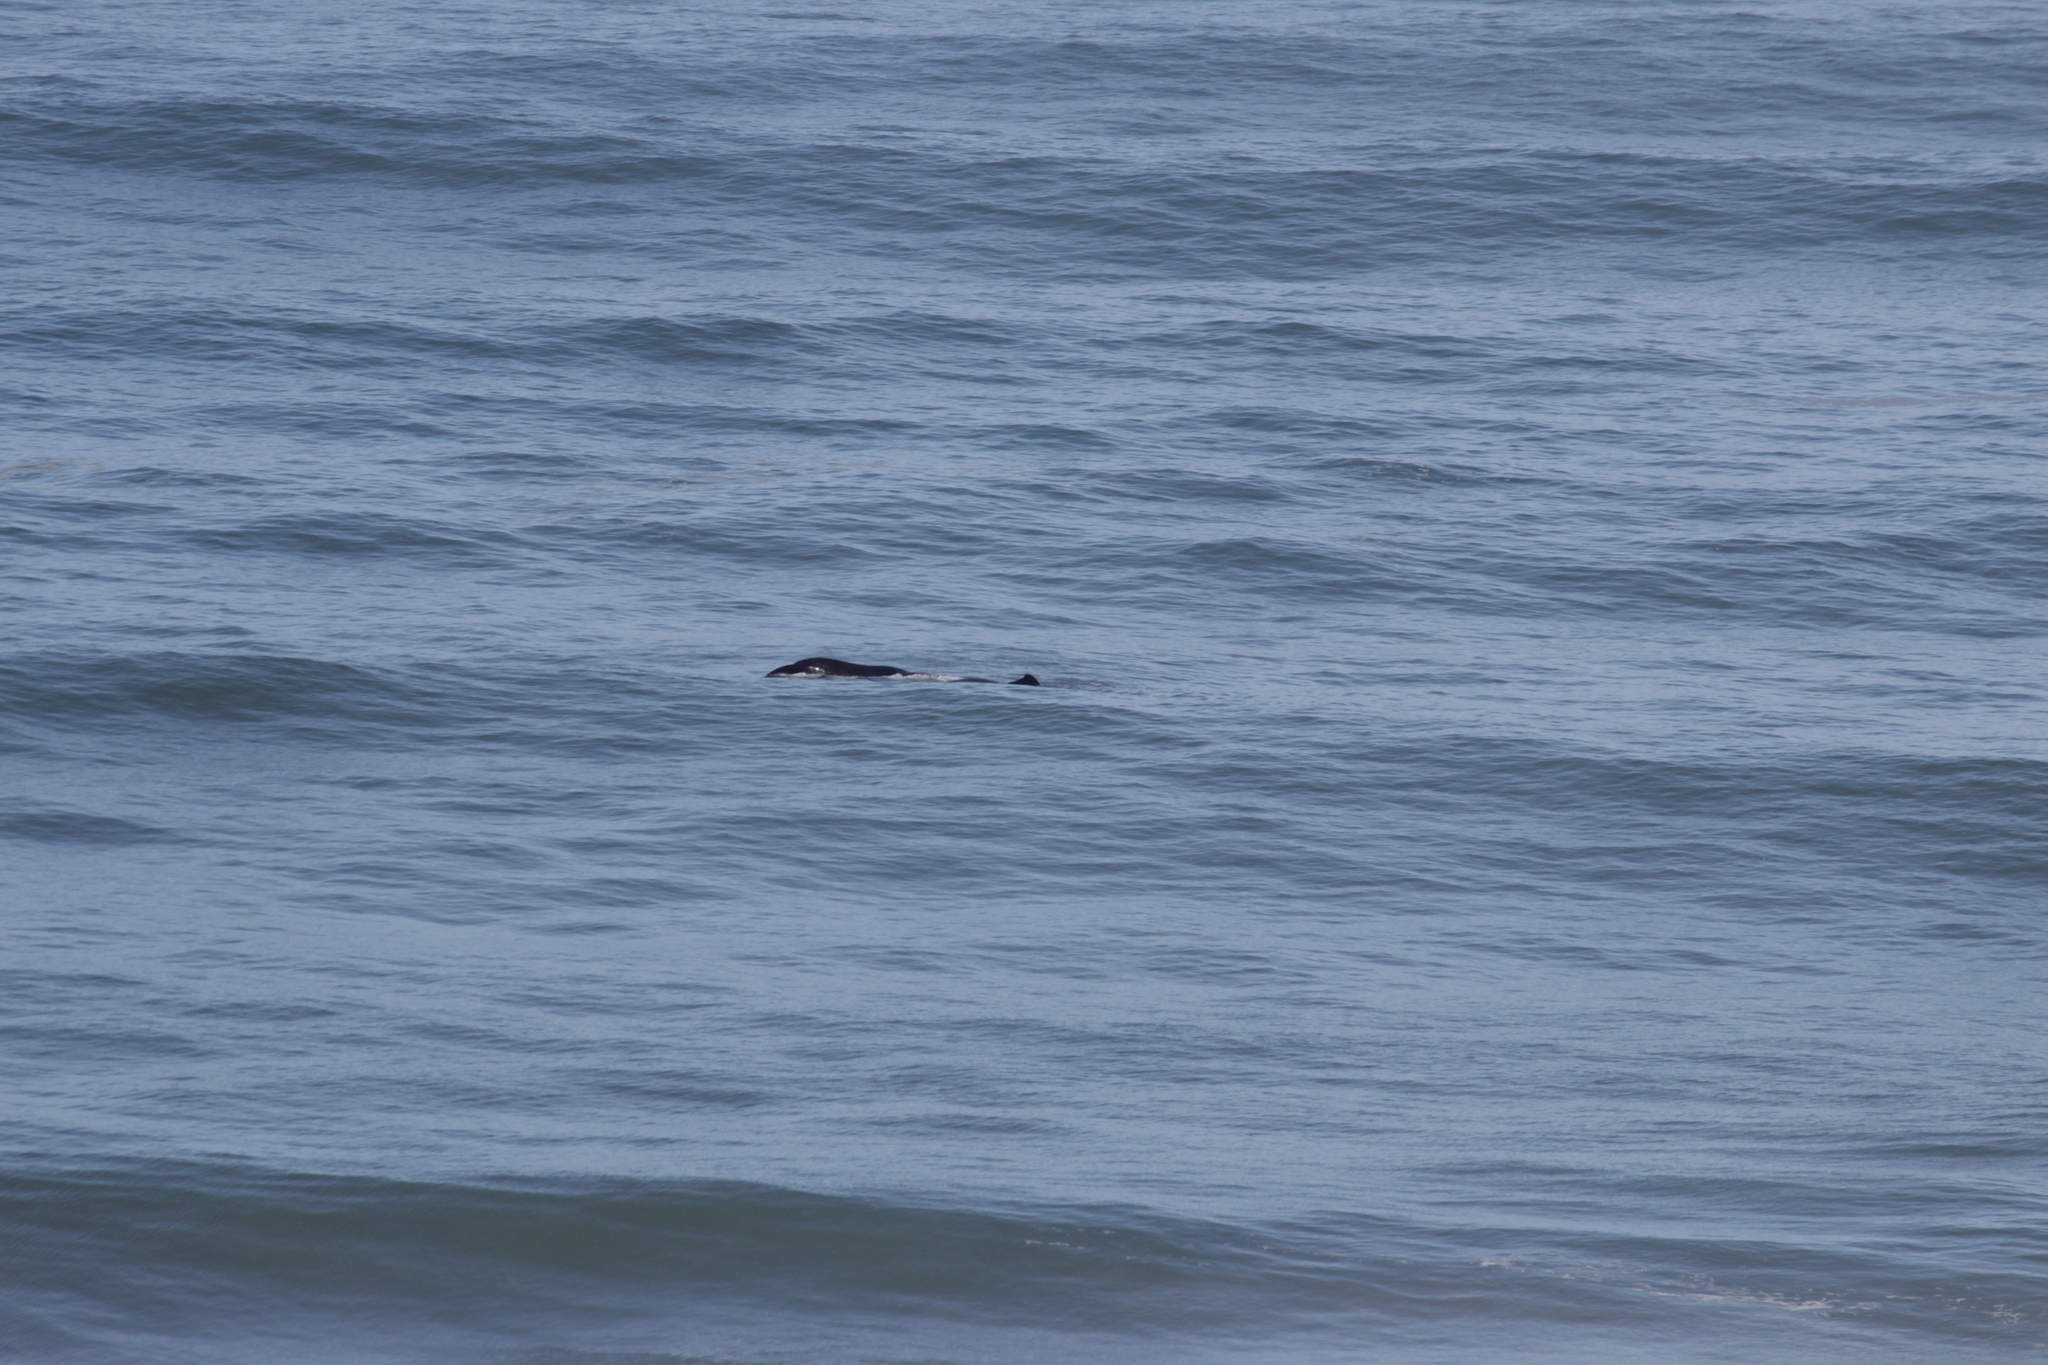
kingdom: Animalia
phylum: Chordata
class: Mammalia
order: Cetacea
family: Balaenidae
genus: Eubalaena
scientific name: Eubalaena australis
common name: Southern right whale
